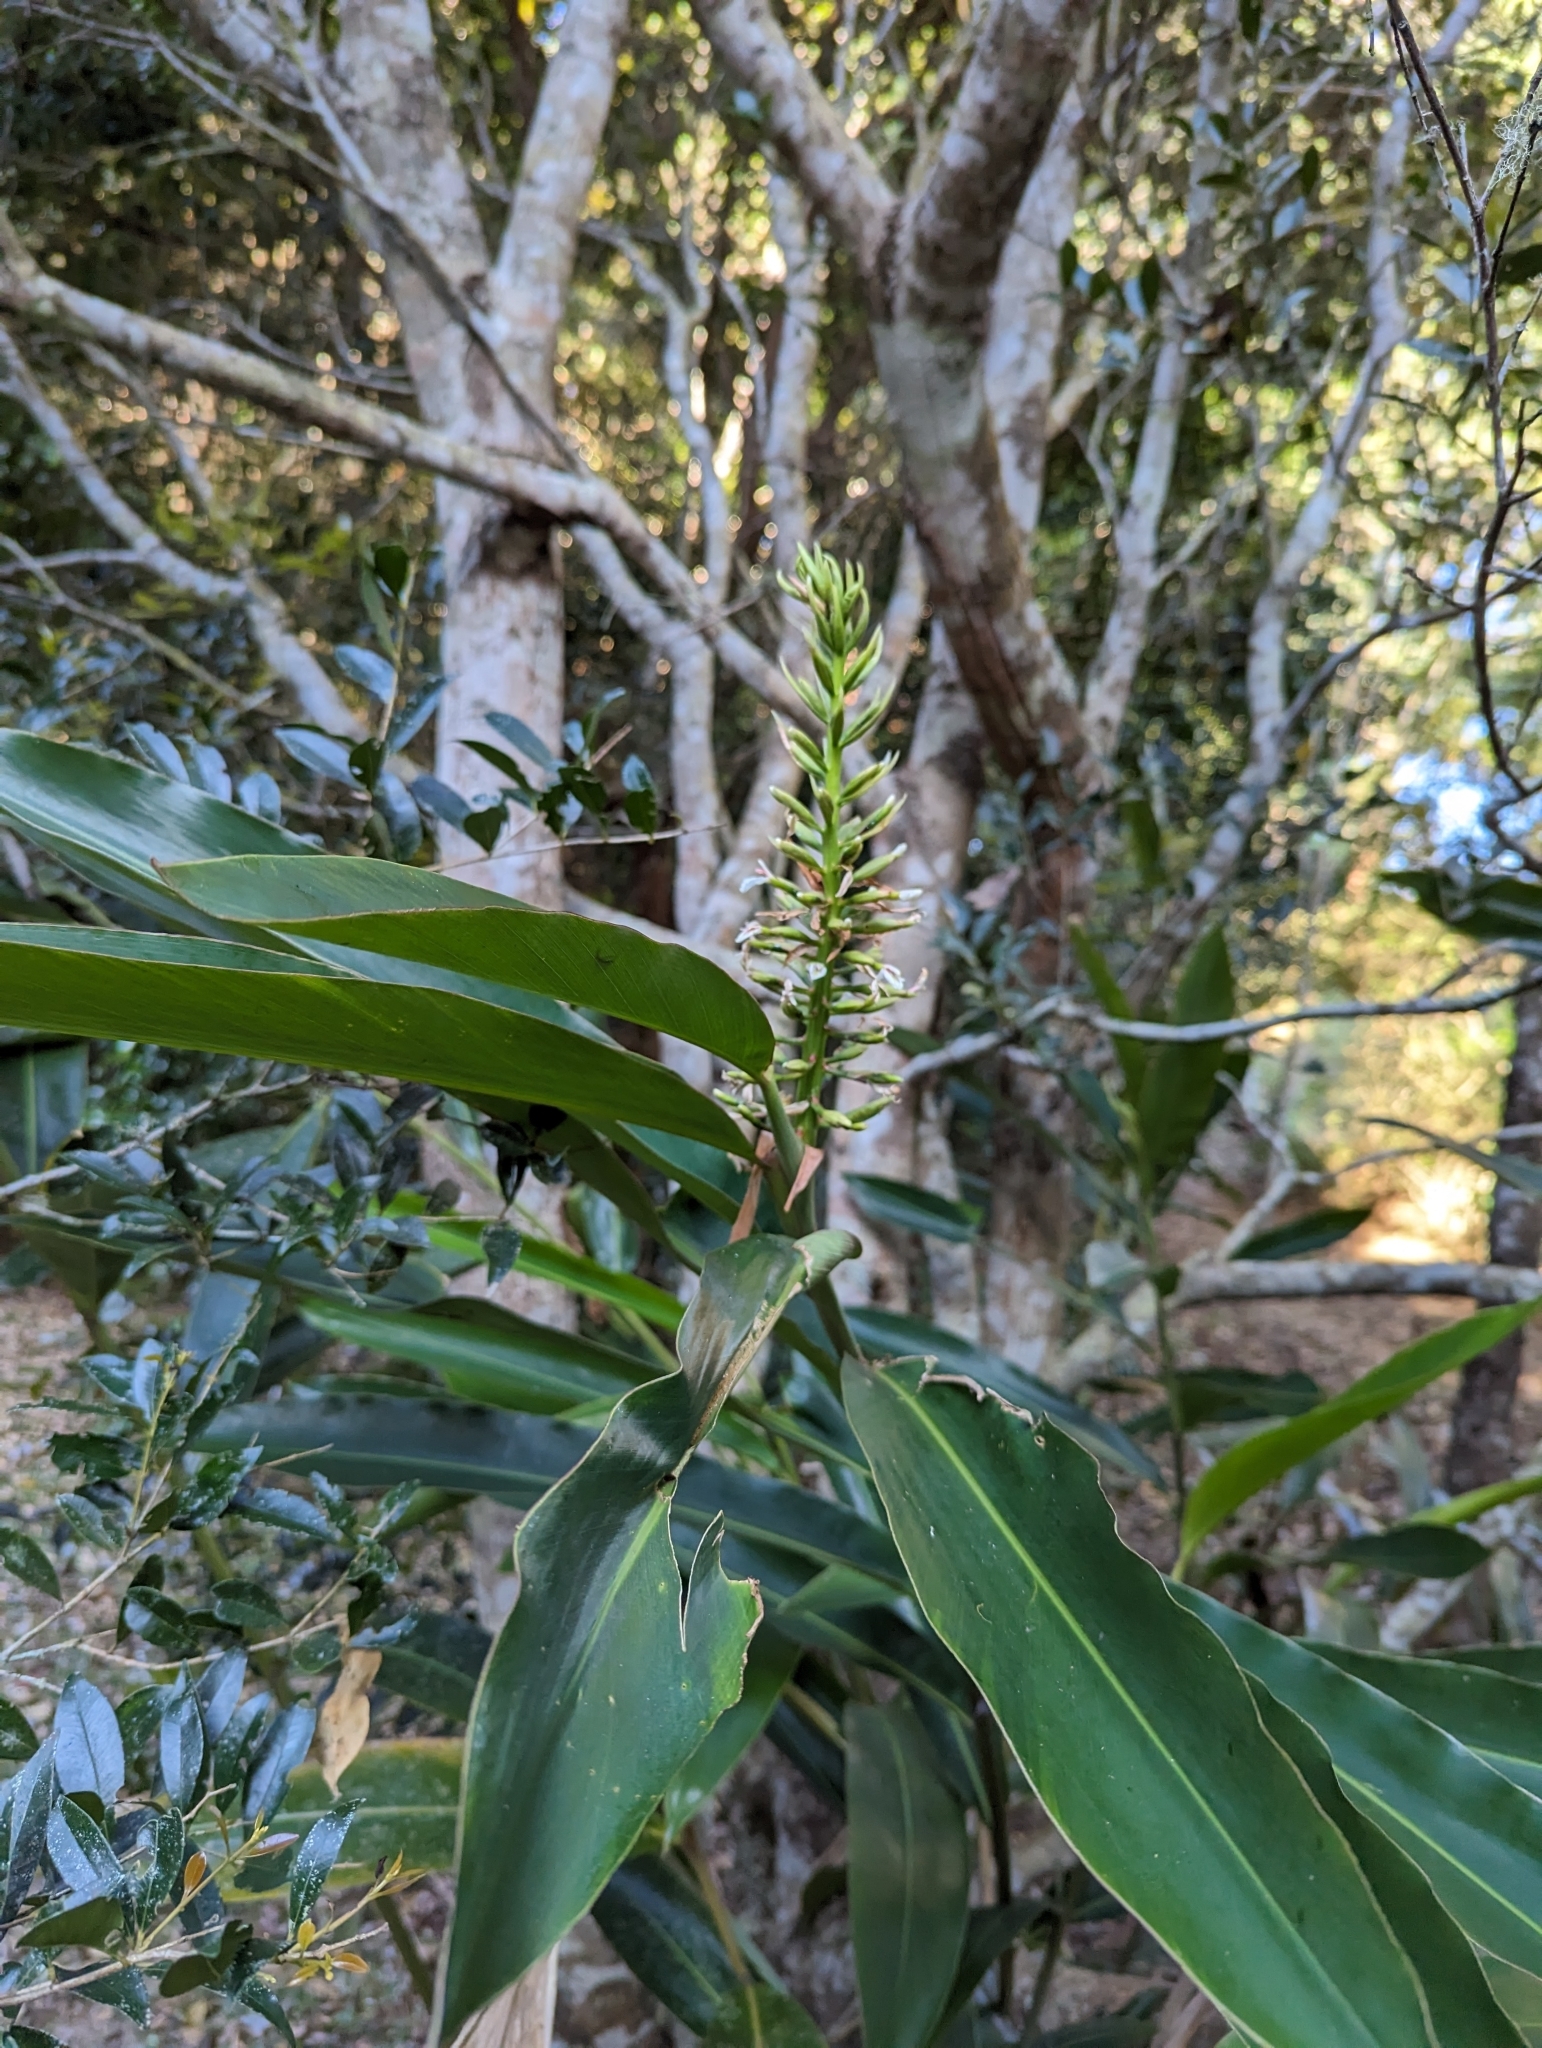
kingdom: Plantae
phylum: Tracheophyta
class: Liliopsida
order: Zingiberales
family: Zingiberaceae
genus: Alpinia
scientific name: Alpinia caerulea
